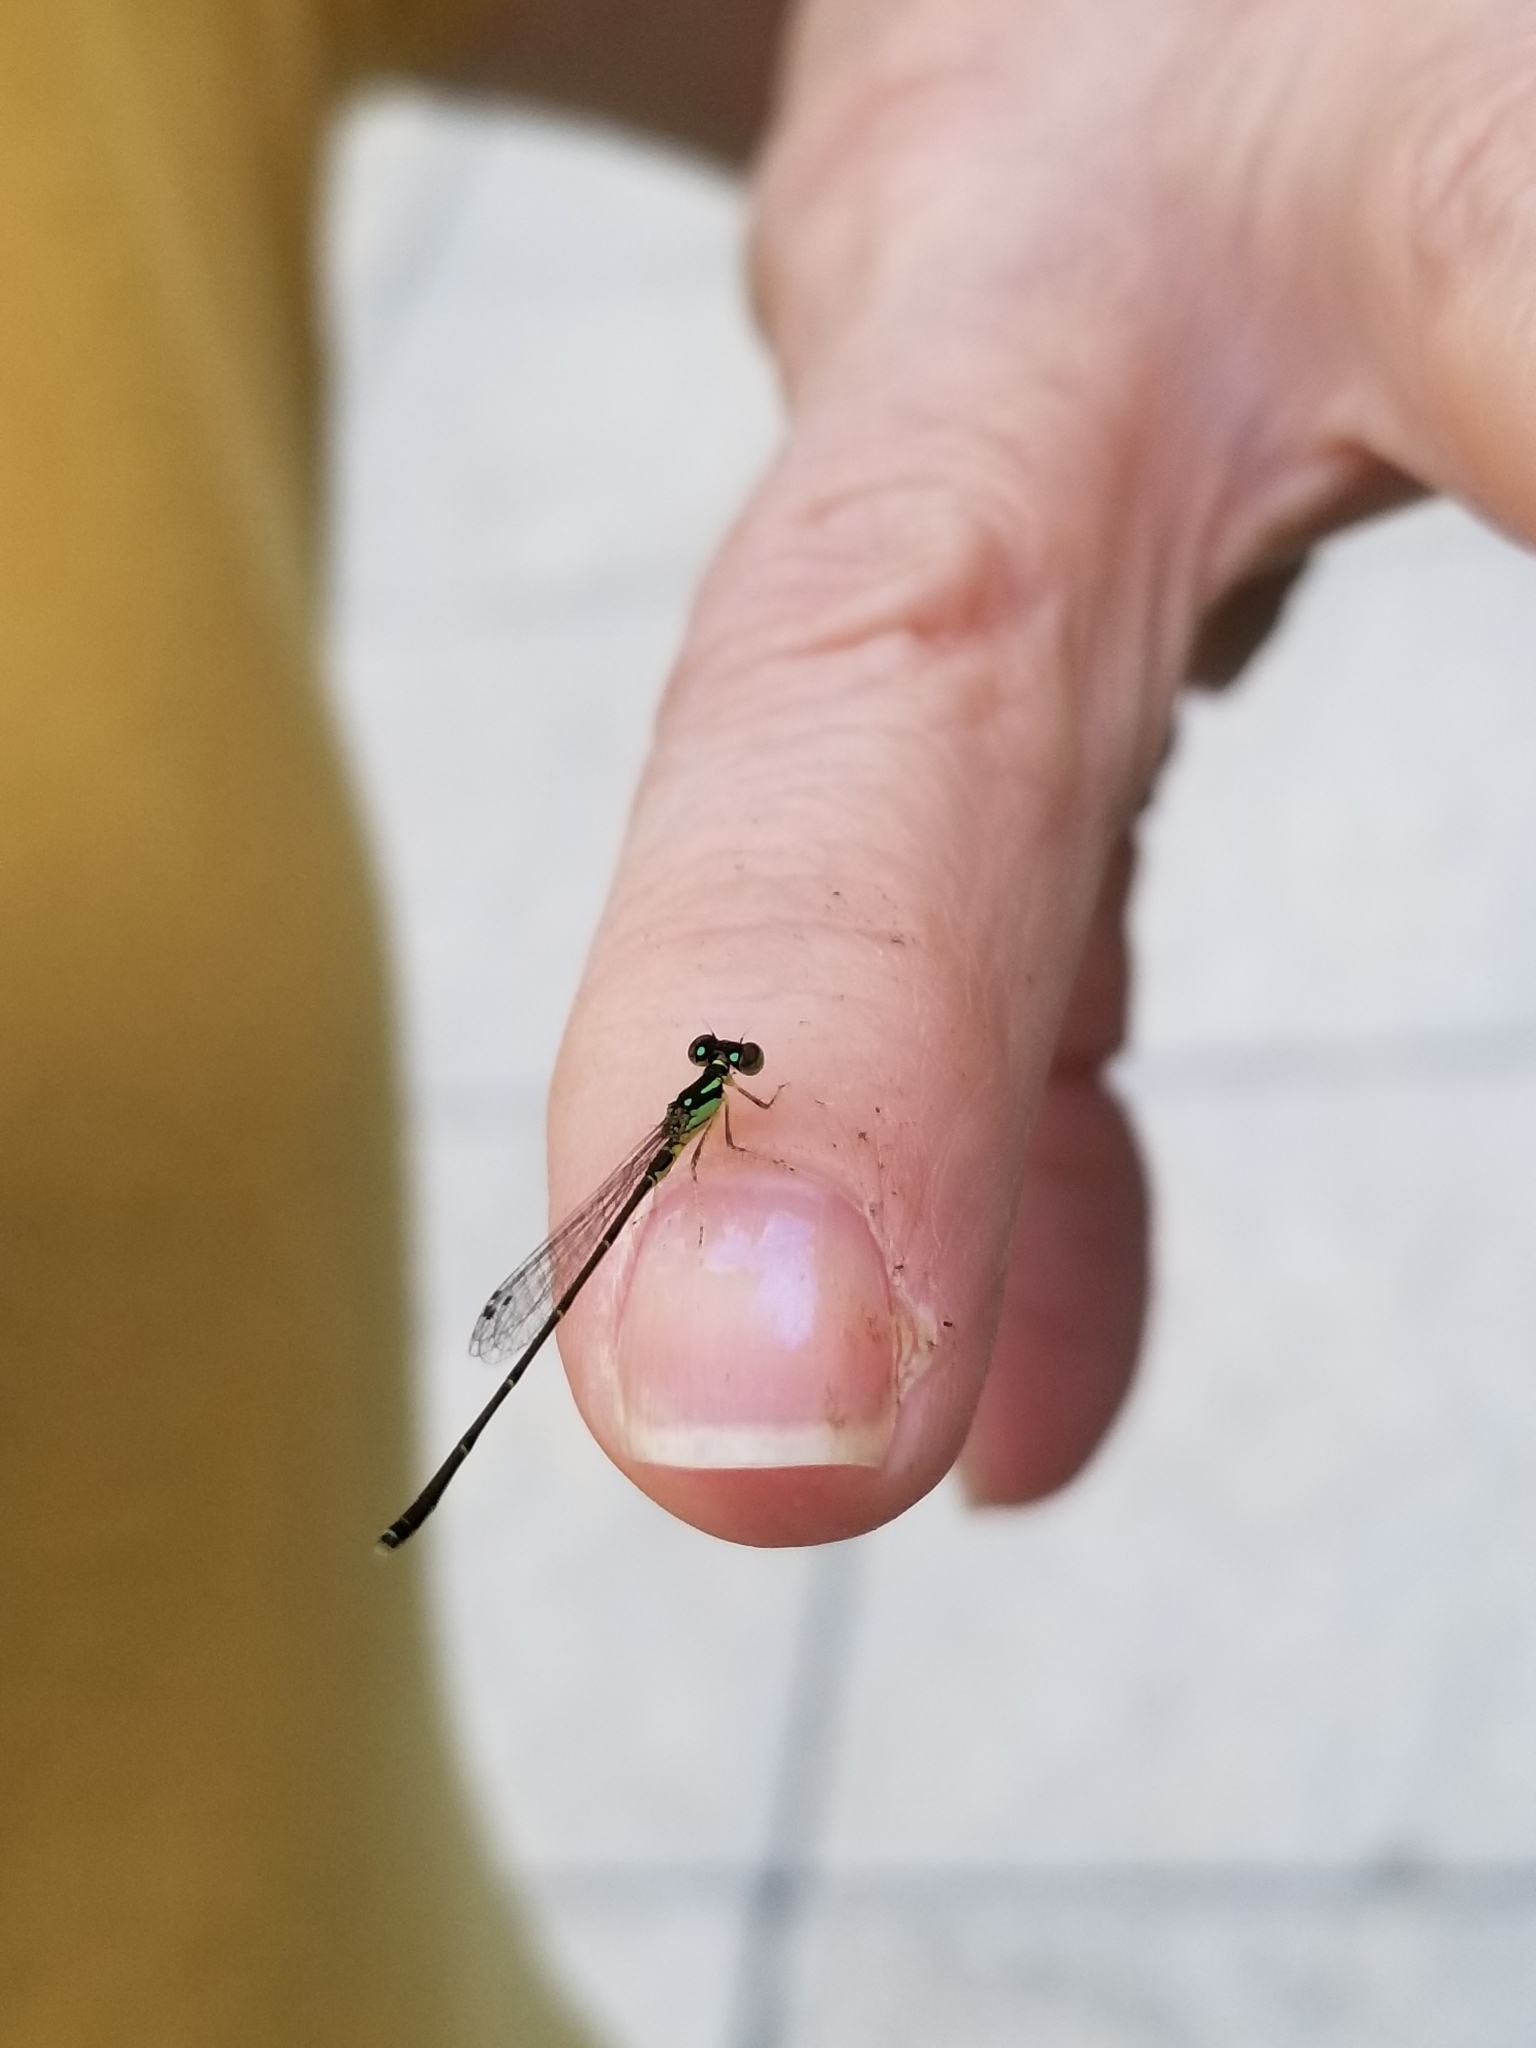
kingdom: Animalia
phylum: Arthropoda
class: Insecta
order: Odonata
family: Coenagrionidae
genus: Ischnura
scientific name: Ischnura posita
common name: Fragile forktail
